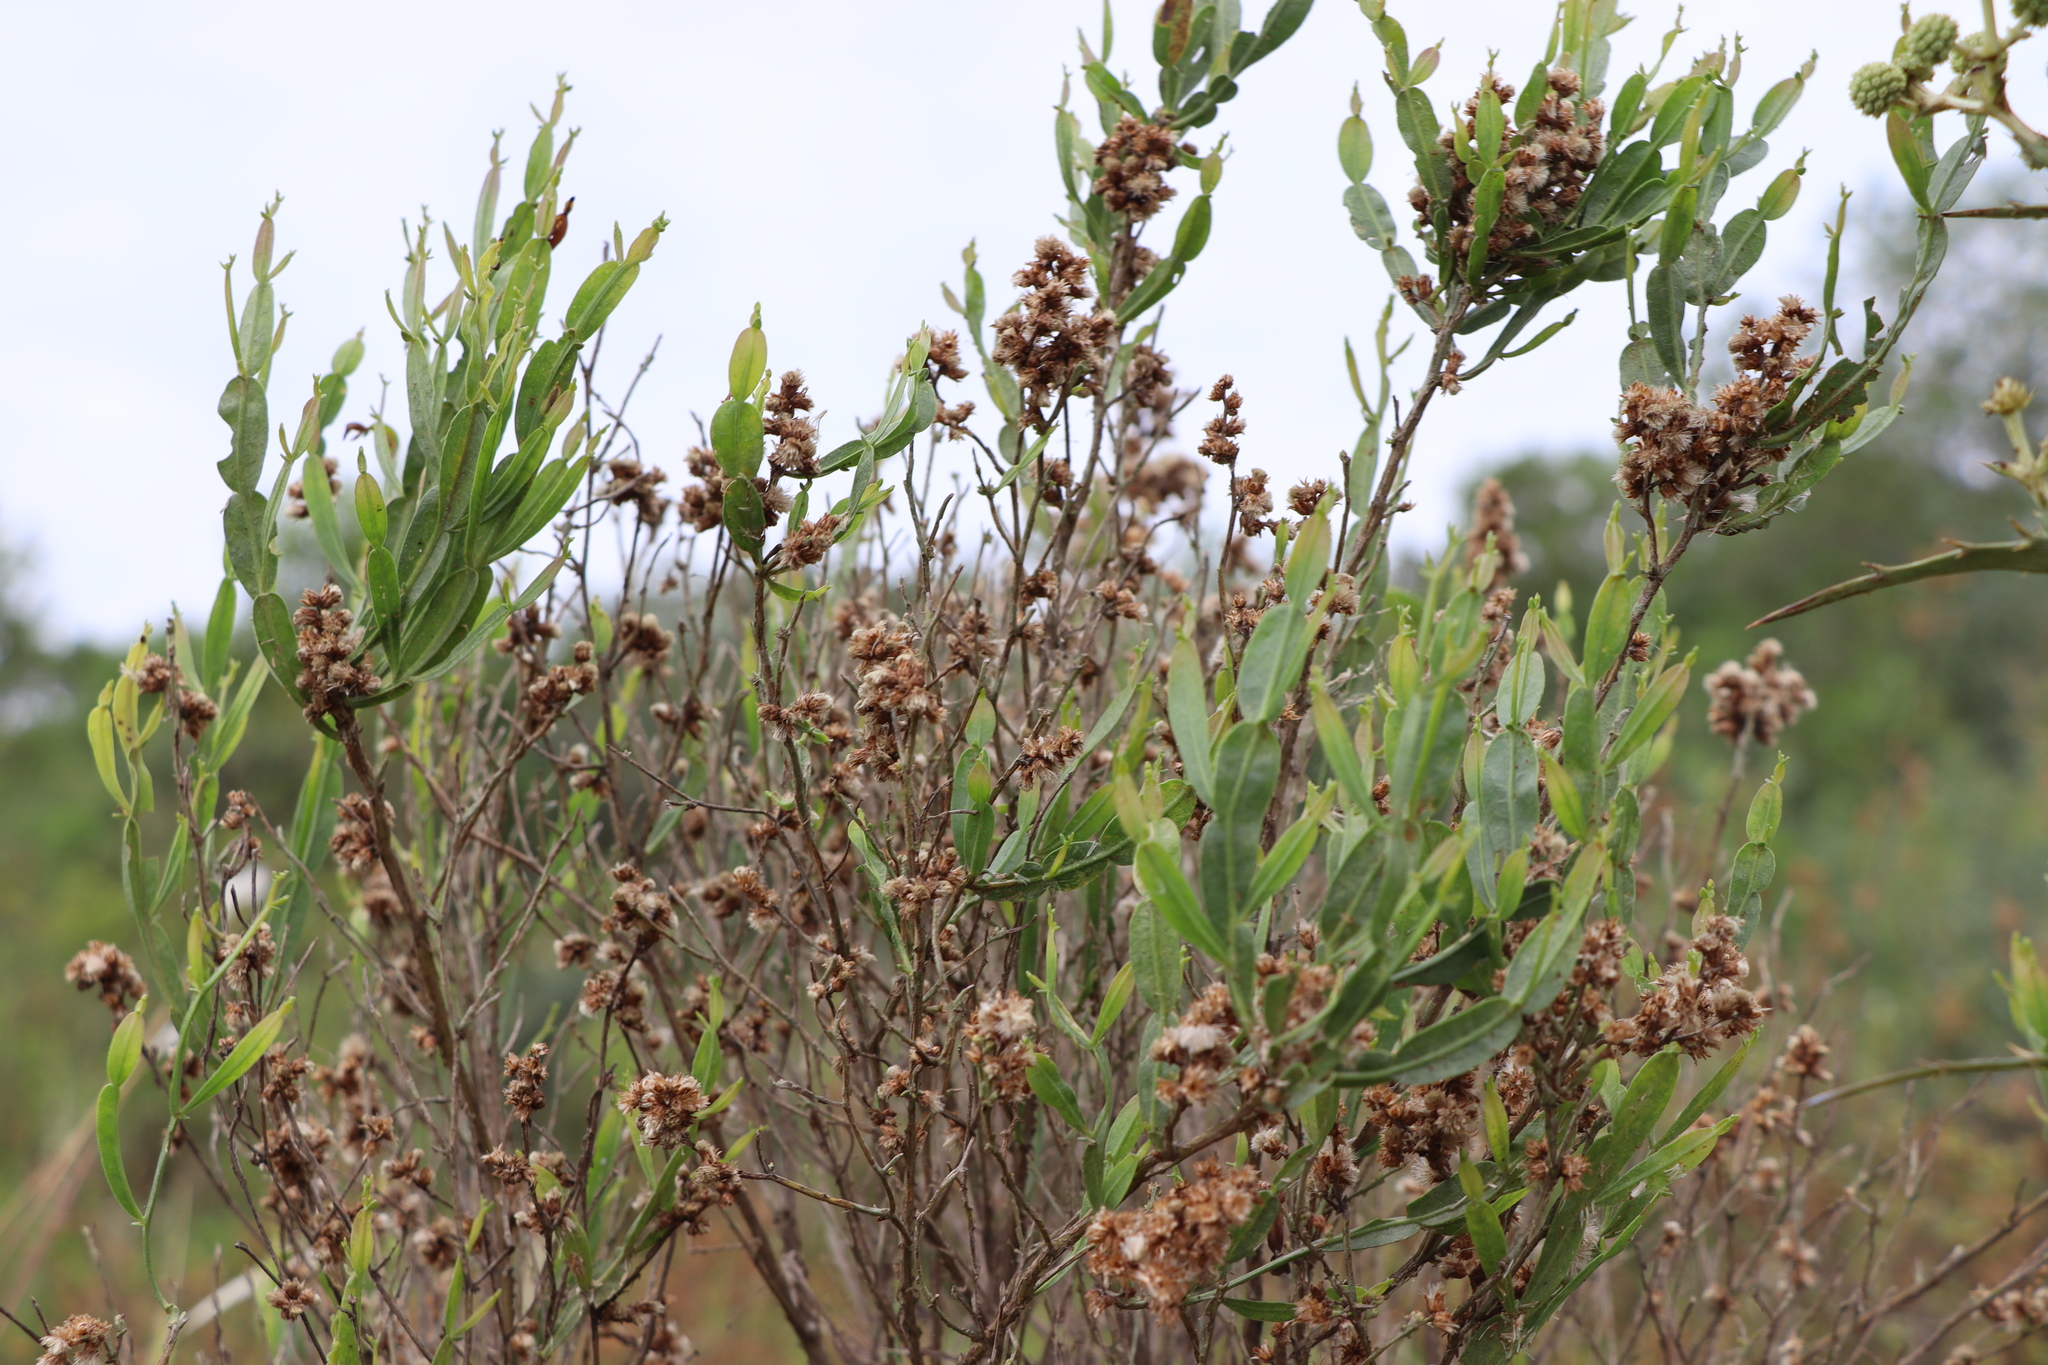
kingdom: Plantae
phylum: Tracheophyta
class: Magnoliopsida
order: Asterales
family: Asteraceae
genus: Baccharis
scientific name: Baccharis articulata
